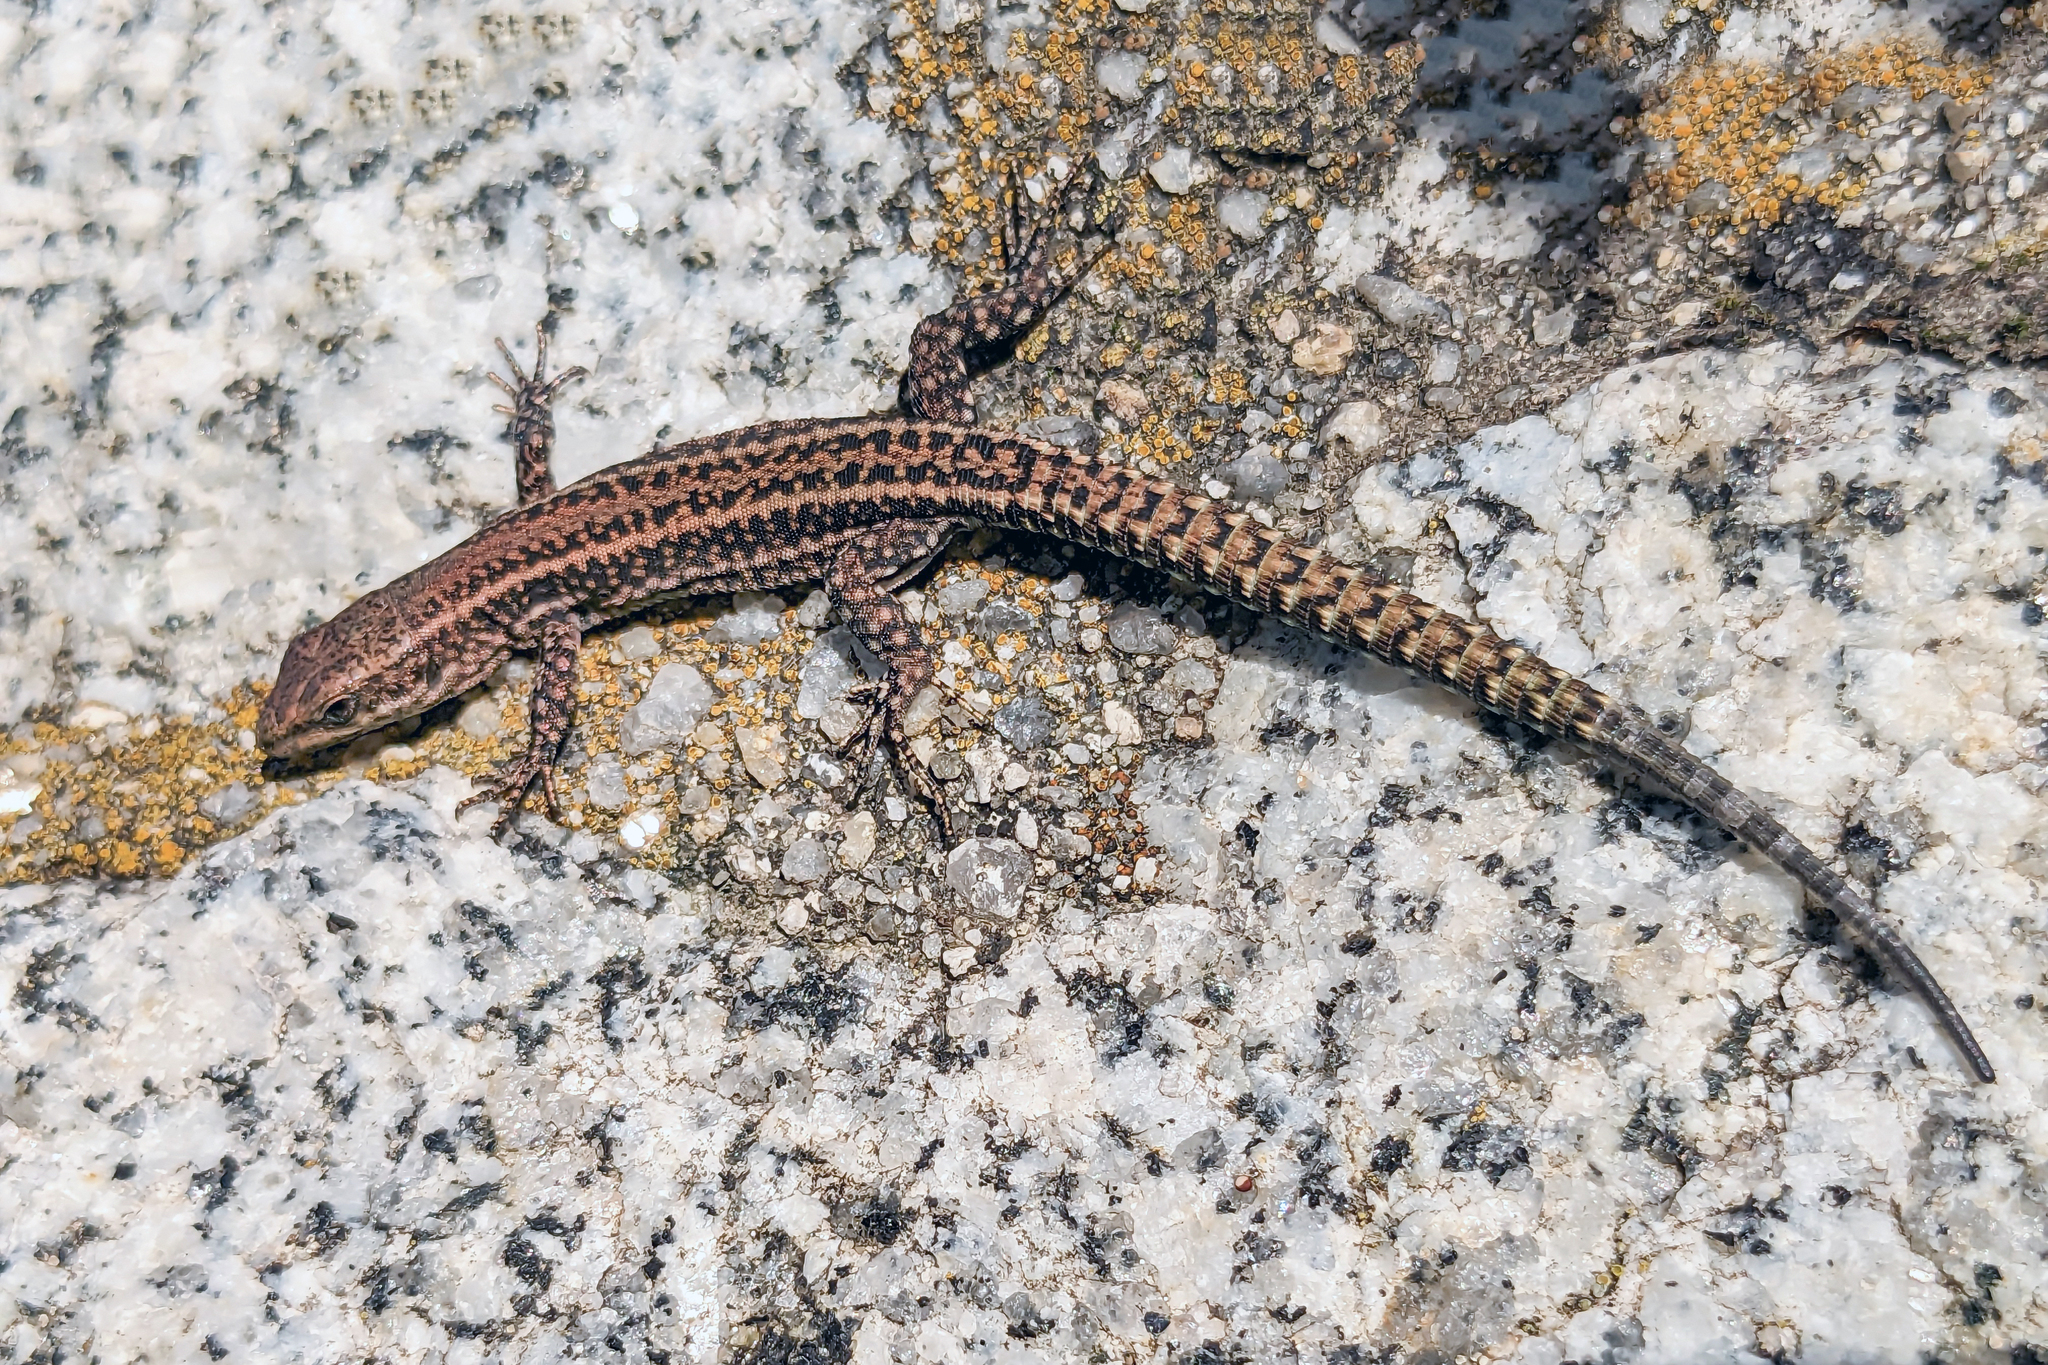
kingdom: Animalia
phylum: Chordata
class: Squamata
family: Lacertidae
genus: Podarcis
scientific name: Podarcis bocagei
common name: Bocage's wall lizard
